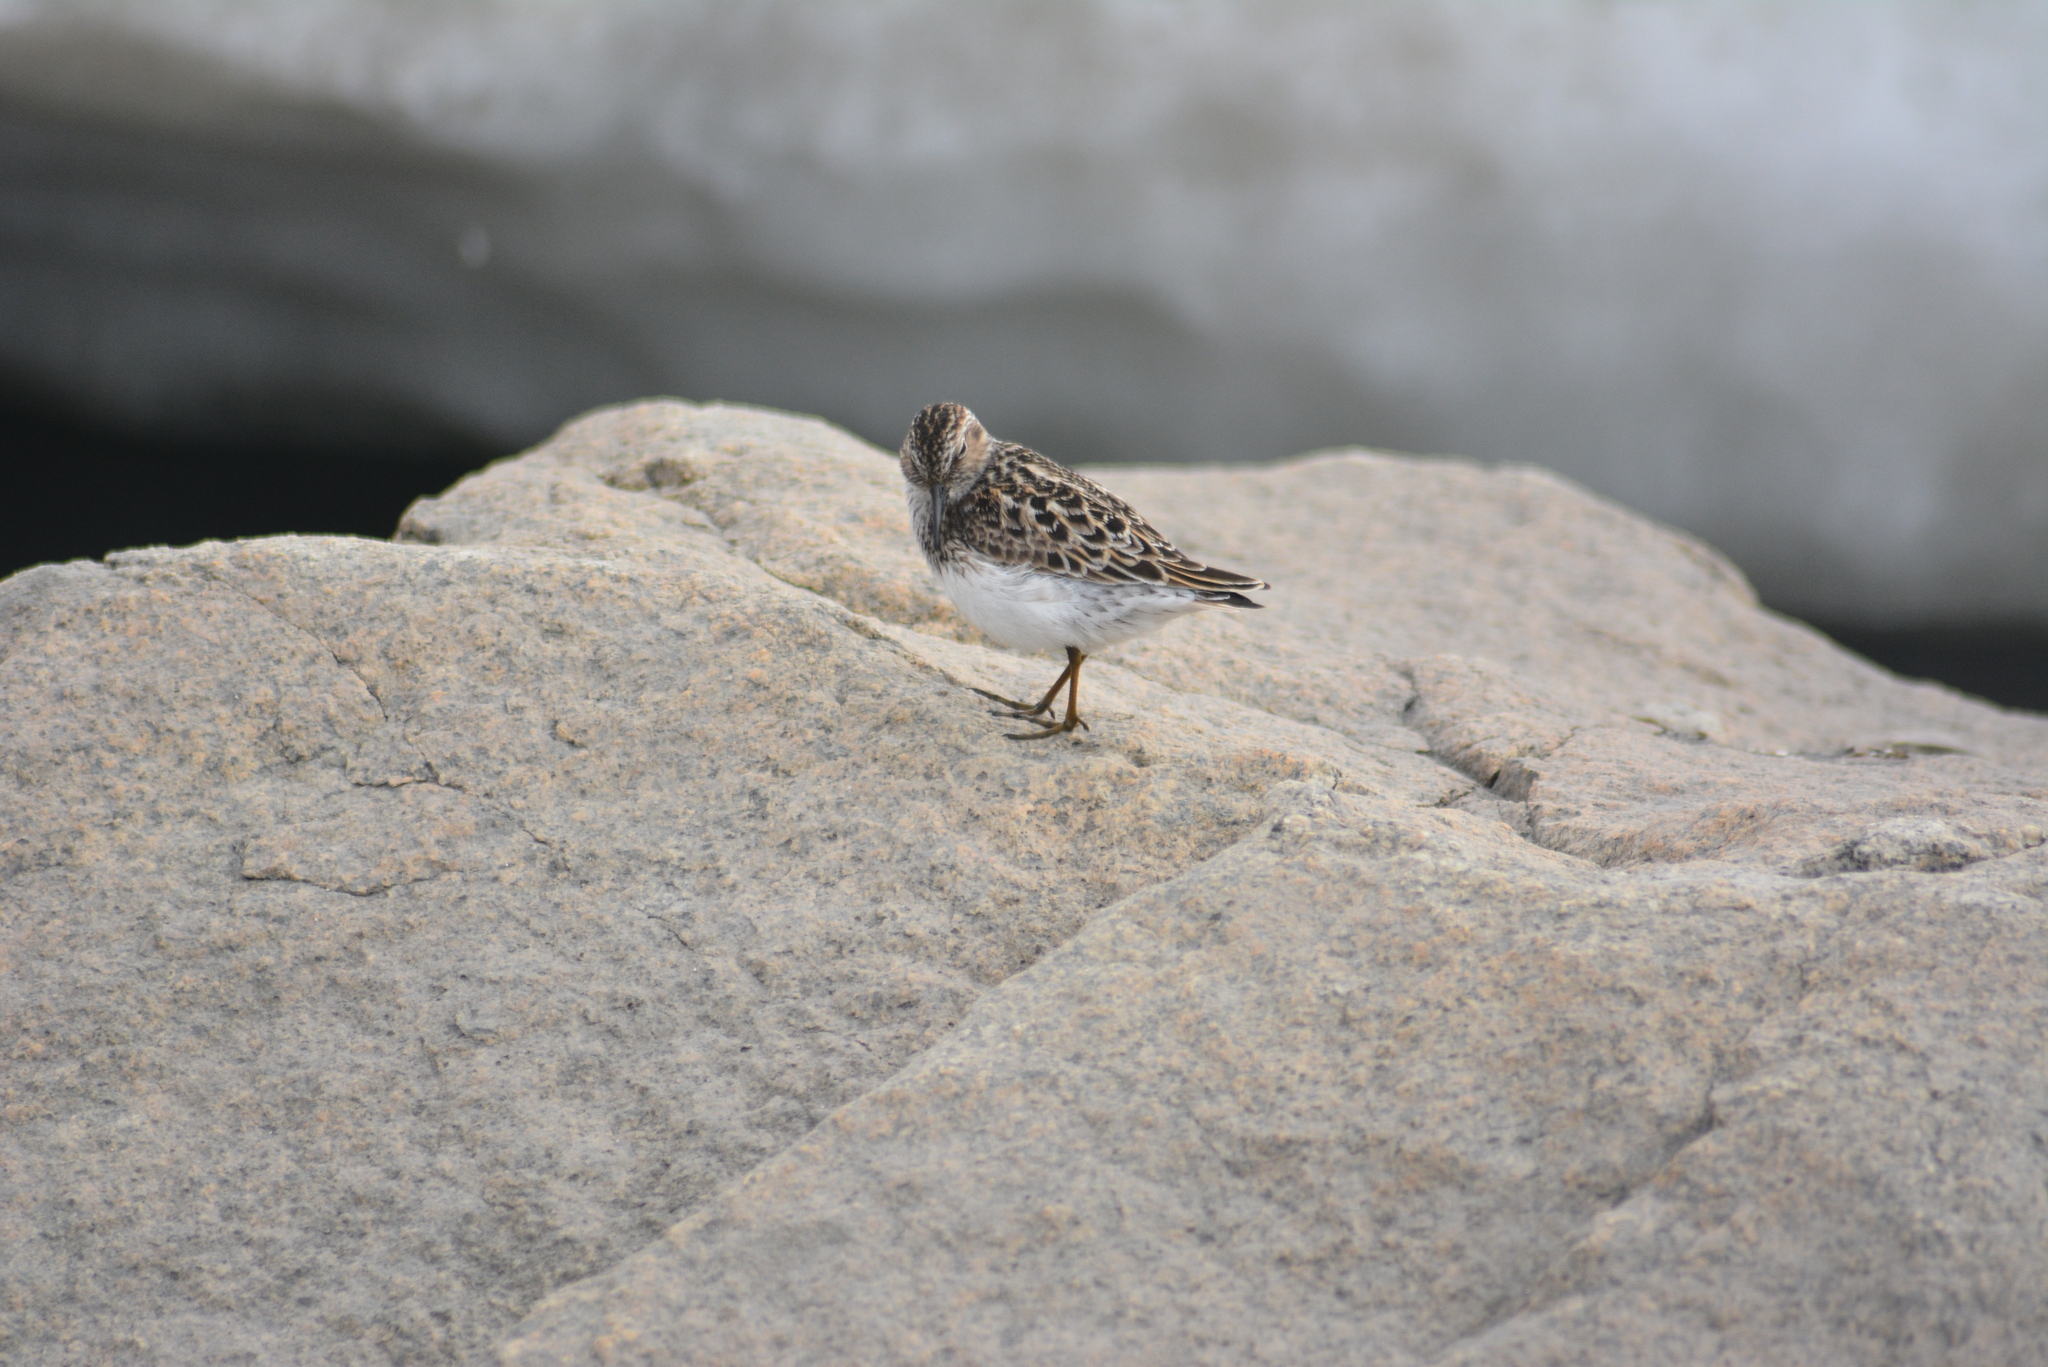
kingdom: Animalia
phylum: Chordata
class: Aves
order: Charadriiformes
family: Scolopacidae
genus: Calidris
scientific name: Calidris minutilla
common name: Least sandpiper
